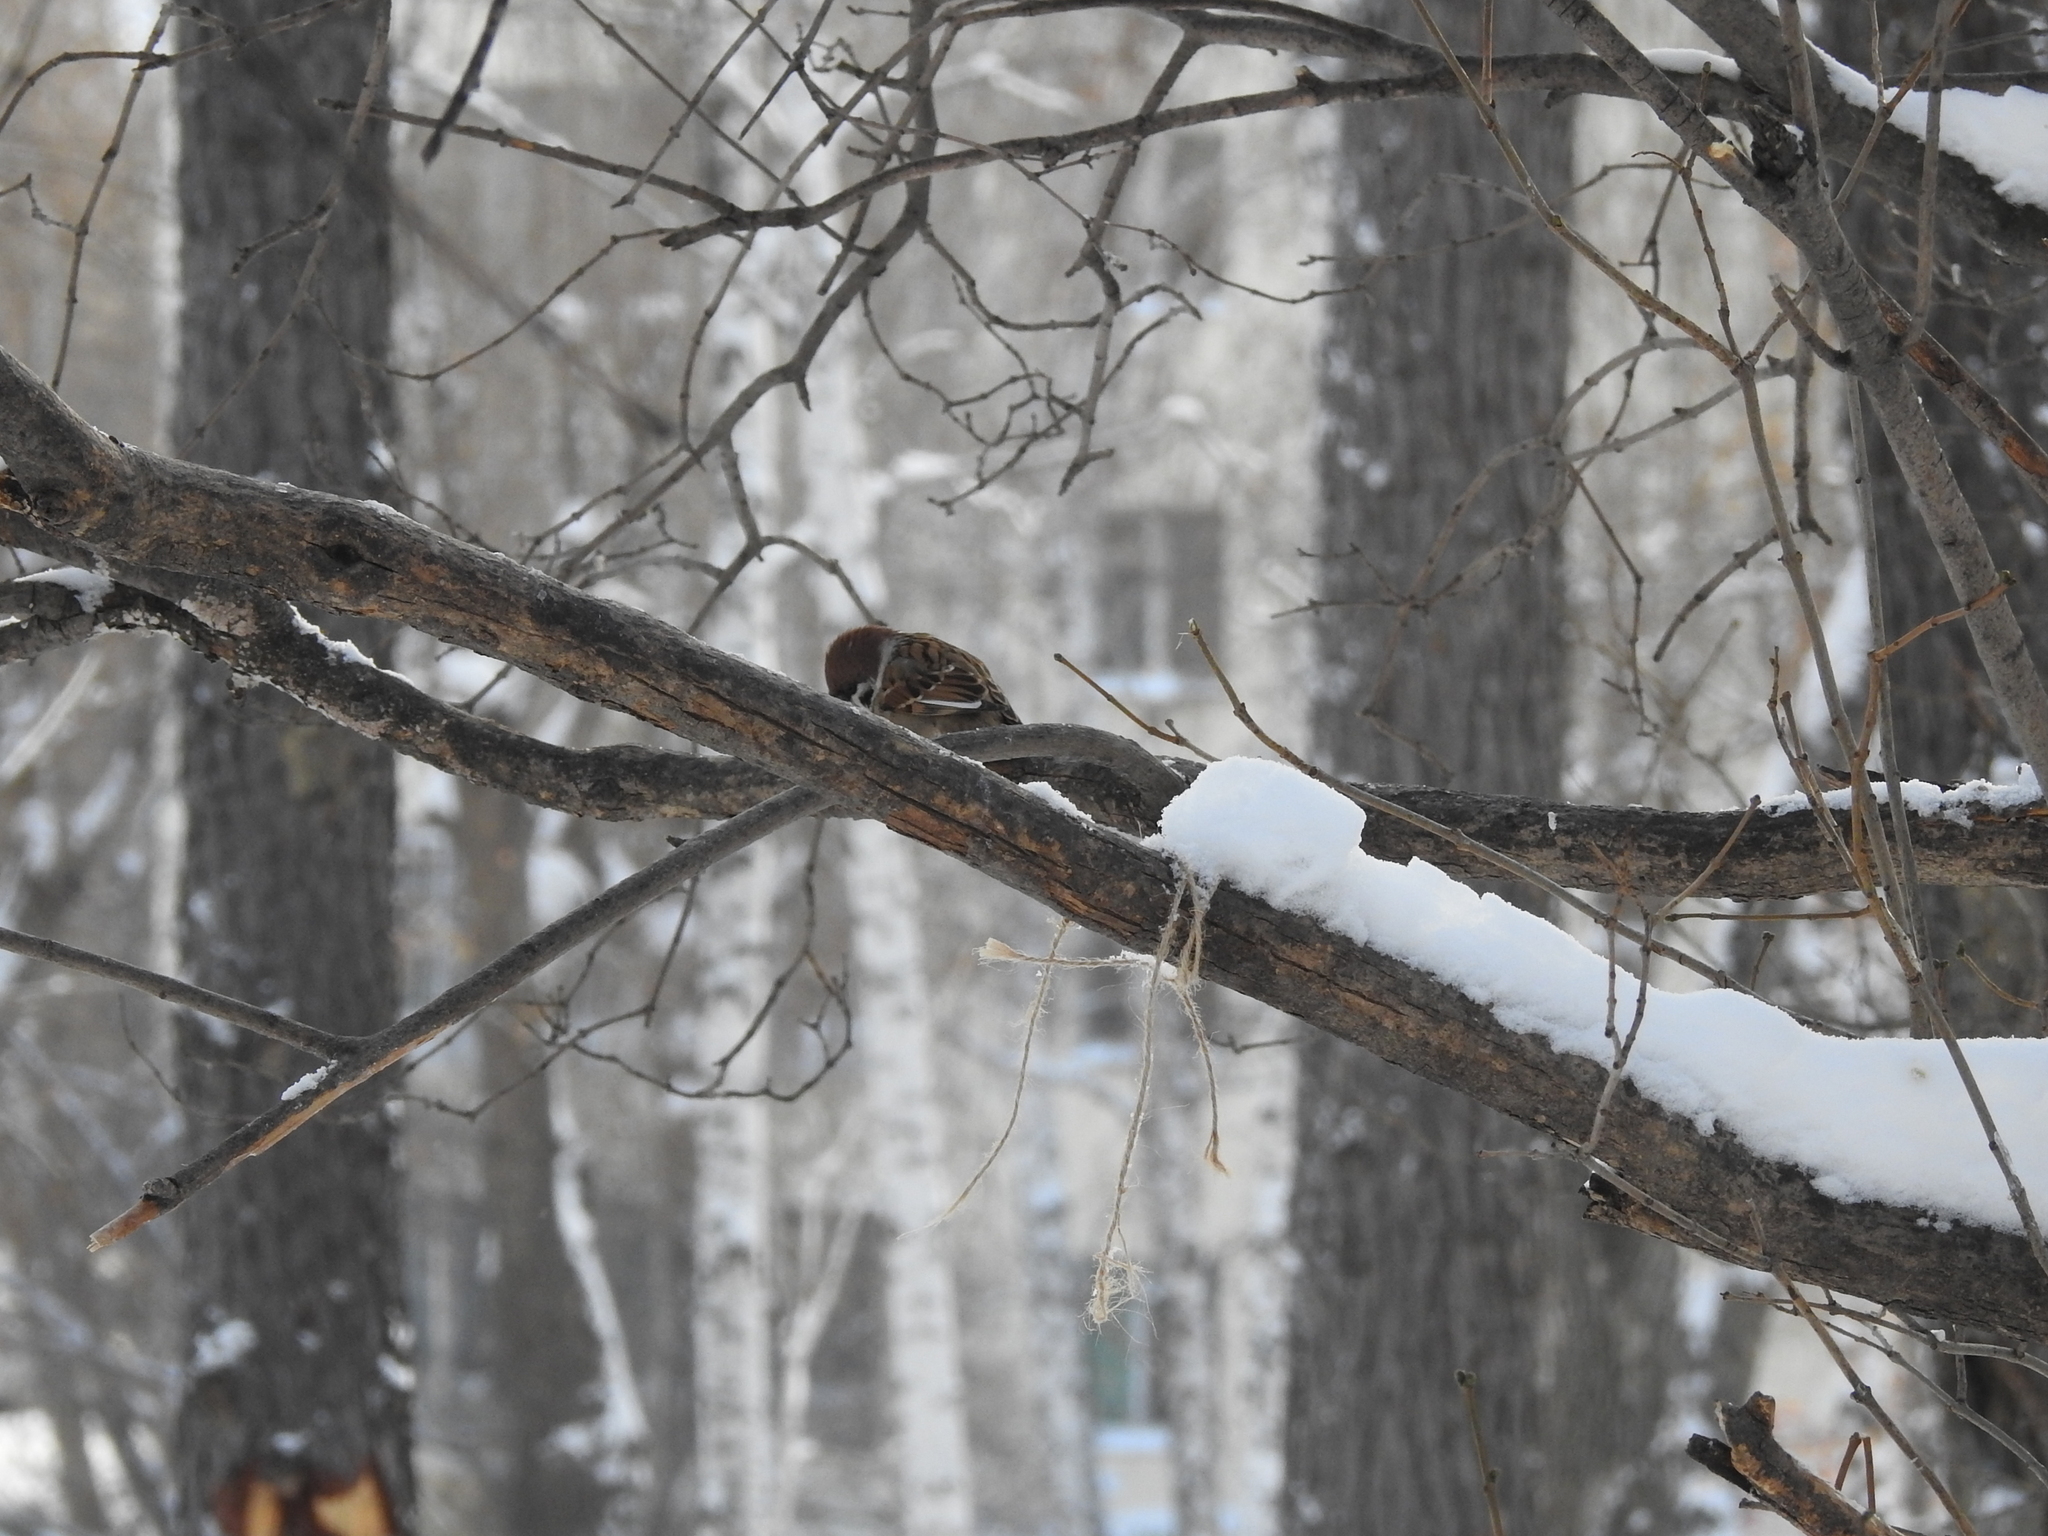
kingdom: Animalia
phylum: Chordata
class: Aves
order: Passeriformes
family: Passeridae
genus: Passer
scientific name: Passer montanus
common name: Eurasian tree sparrow
